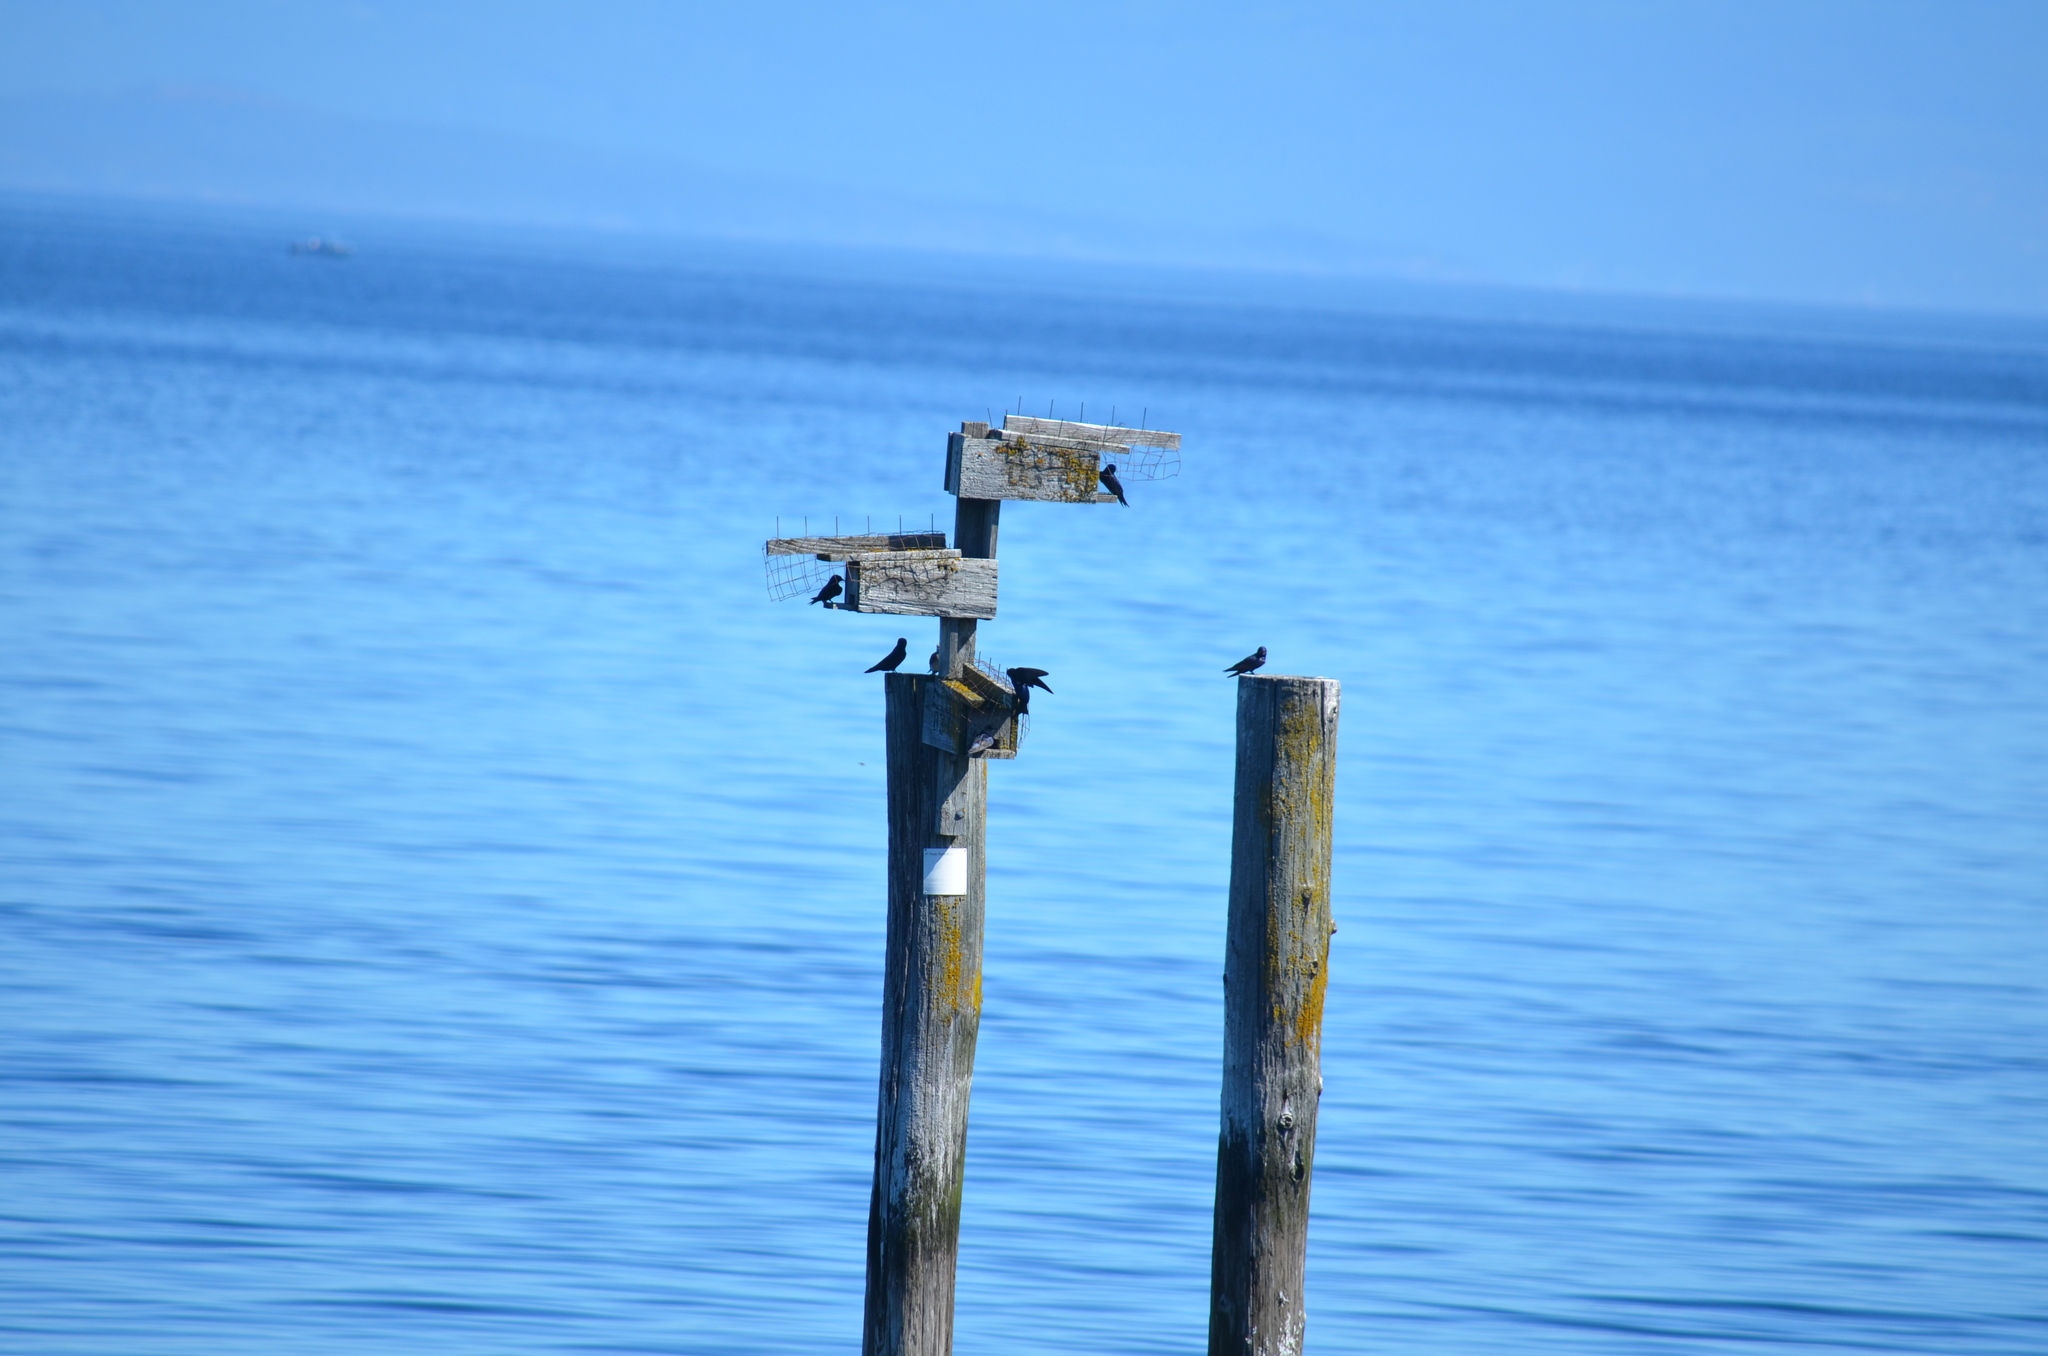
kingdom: Animalia
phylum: Chordata
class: Aves
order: Passeriformes
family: Hirundinidae
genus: Progne
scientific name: Progne subis
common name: Purple martin
